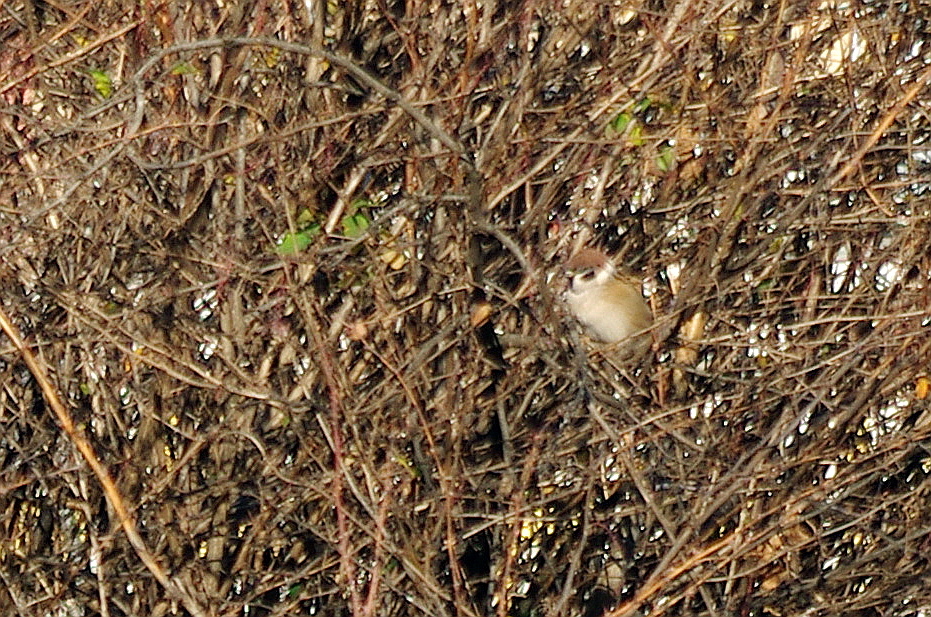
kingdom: Animalia
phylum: Chordata
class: Aves
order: Passeriformes
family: Passeridae
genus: Passer
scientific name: Passer montanus
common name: Eurasian tree sparrow
